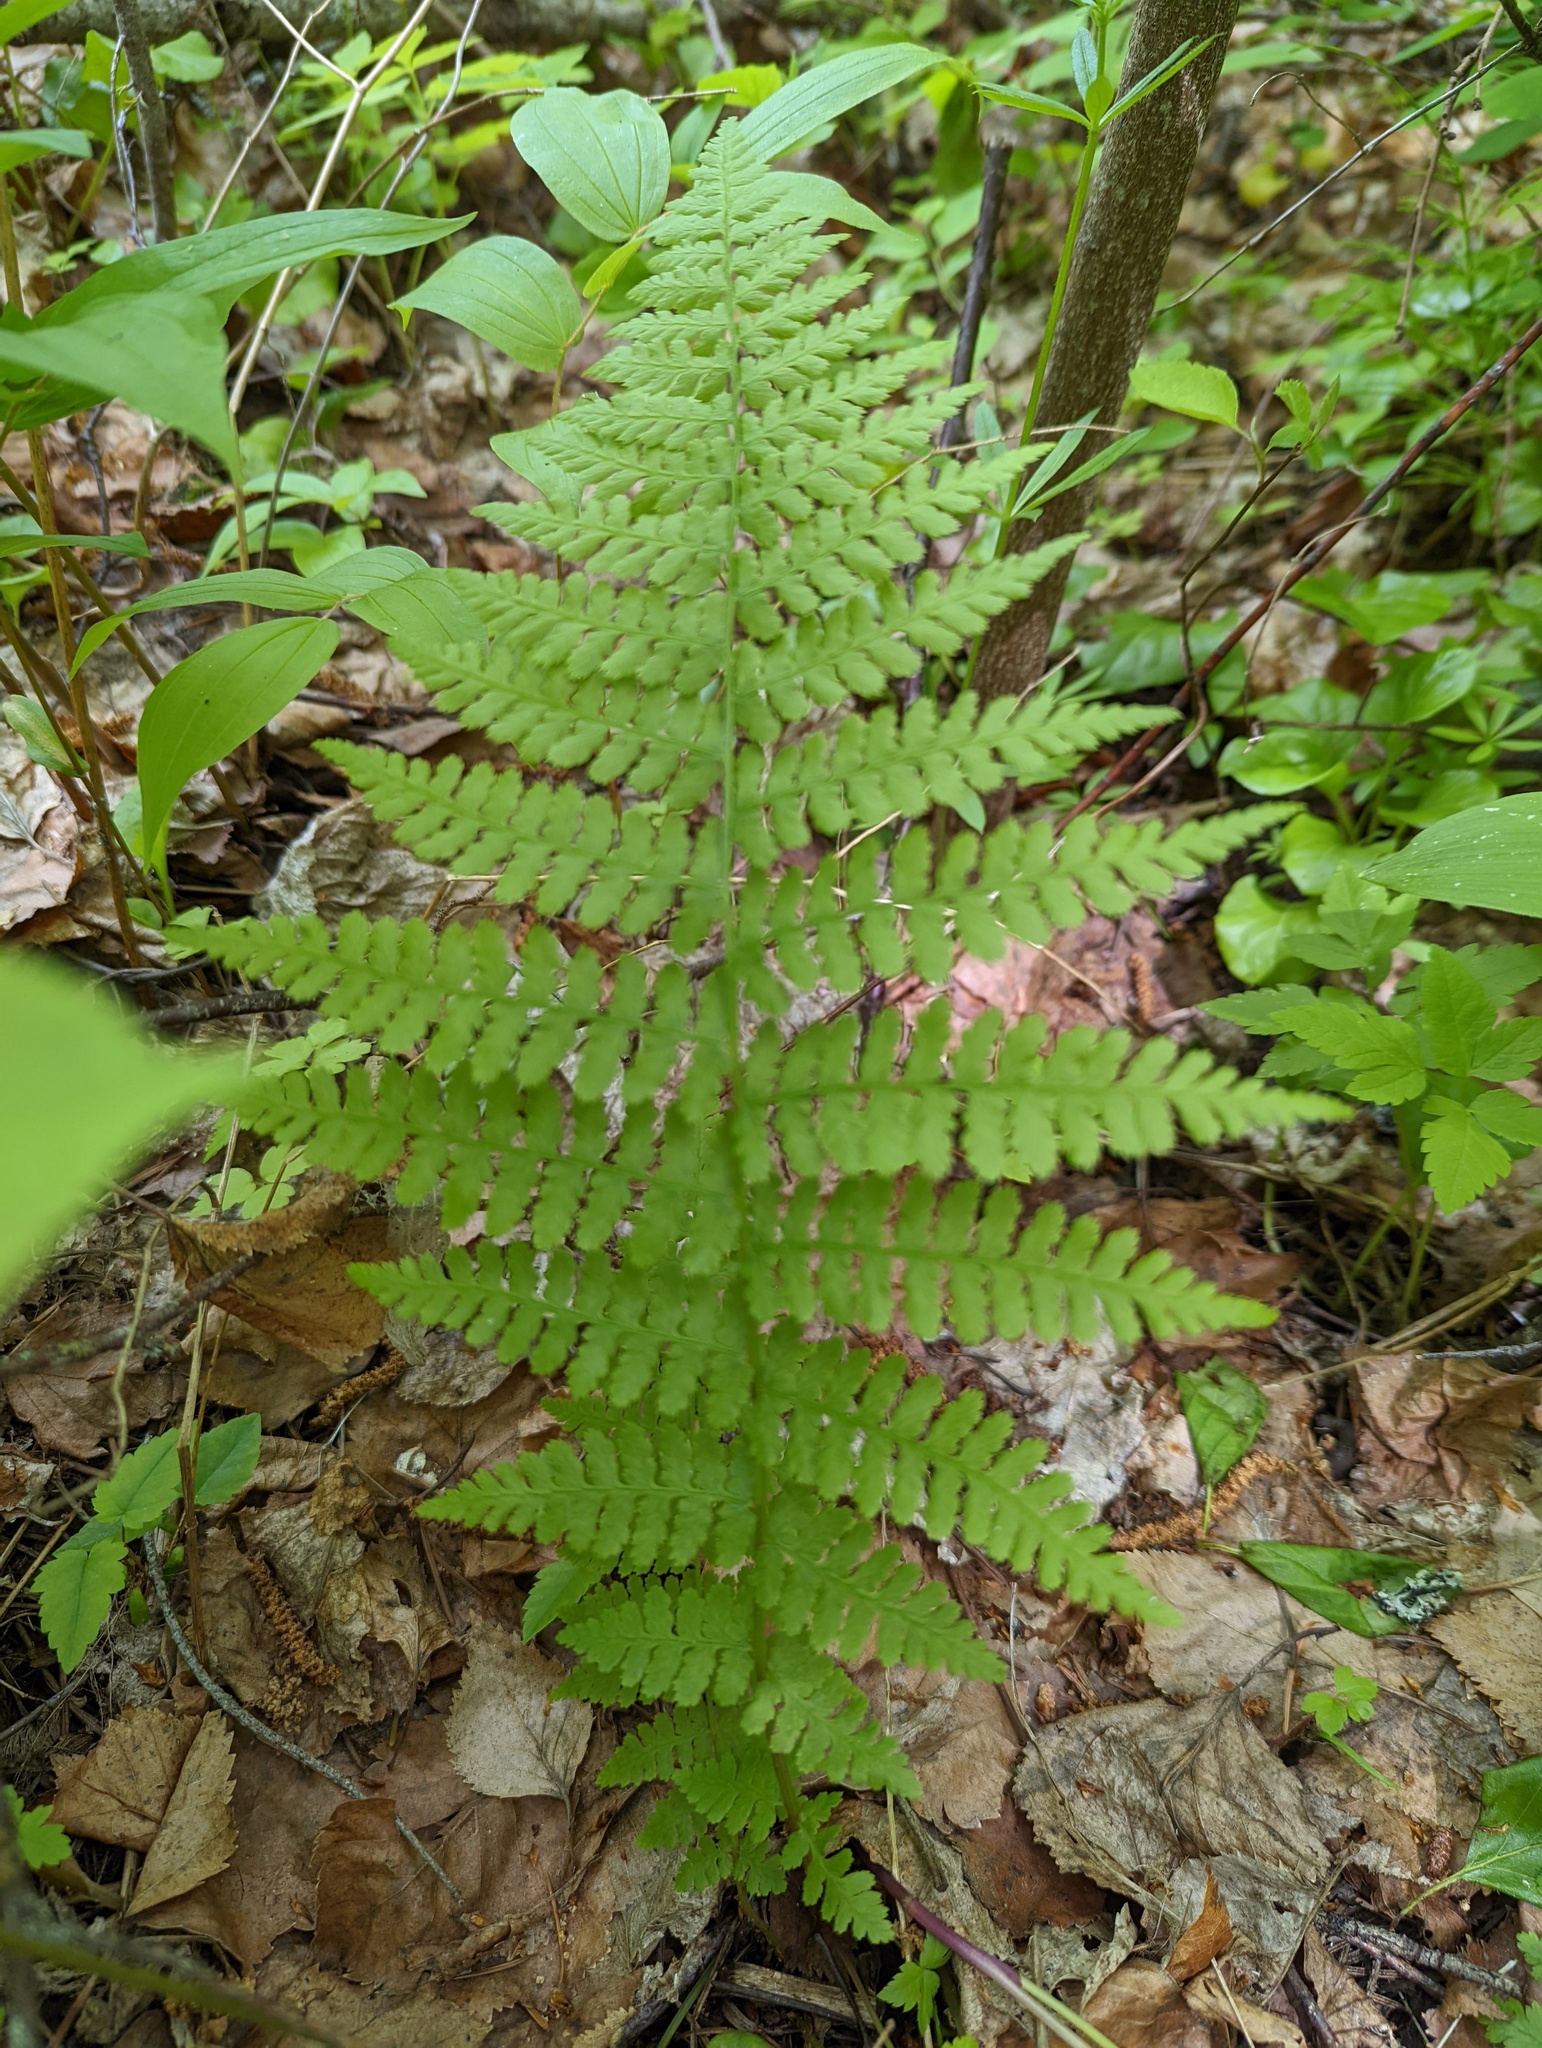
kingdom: Plantae
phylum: Tracheophyta
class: Polypodiopsida
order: Polypodiales
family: Athyriaceae
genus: Athyrium
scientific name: Athyrium filix-femina
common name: Lady fern
